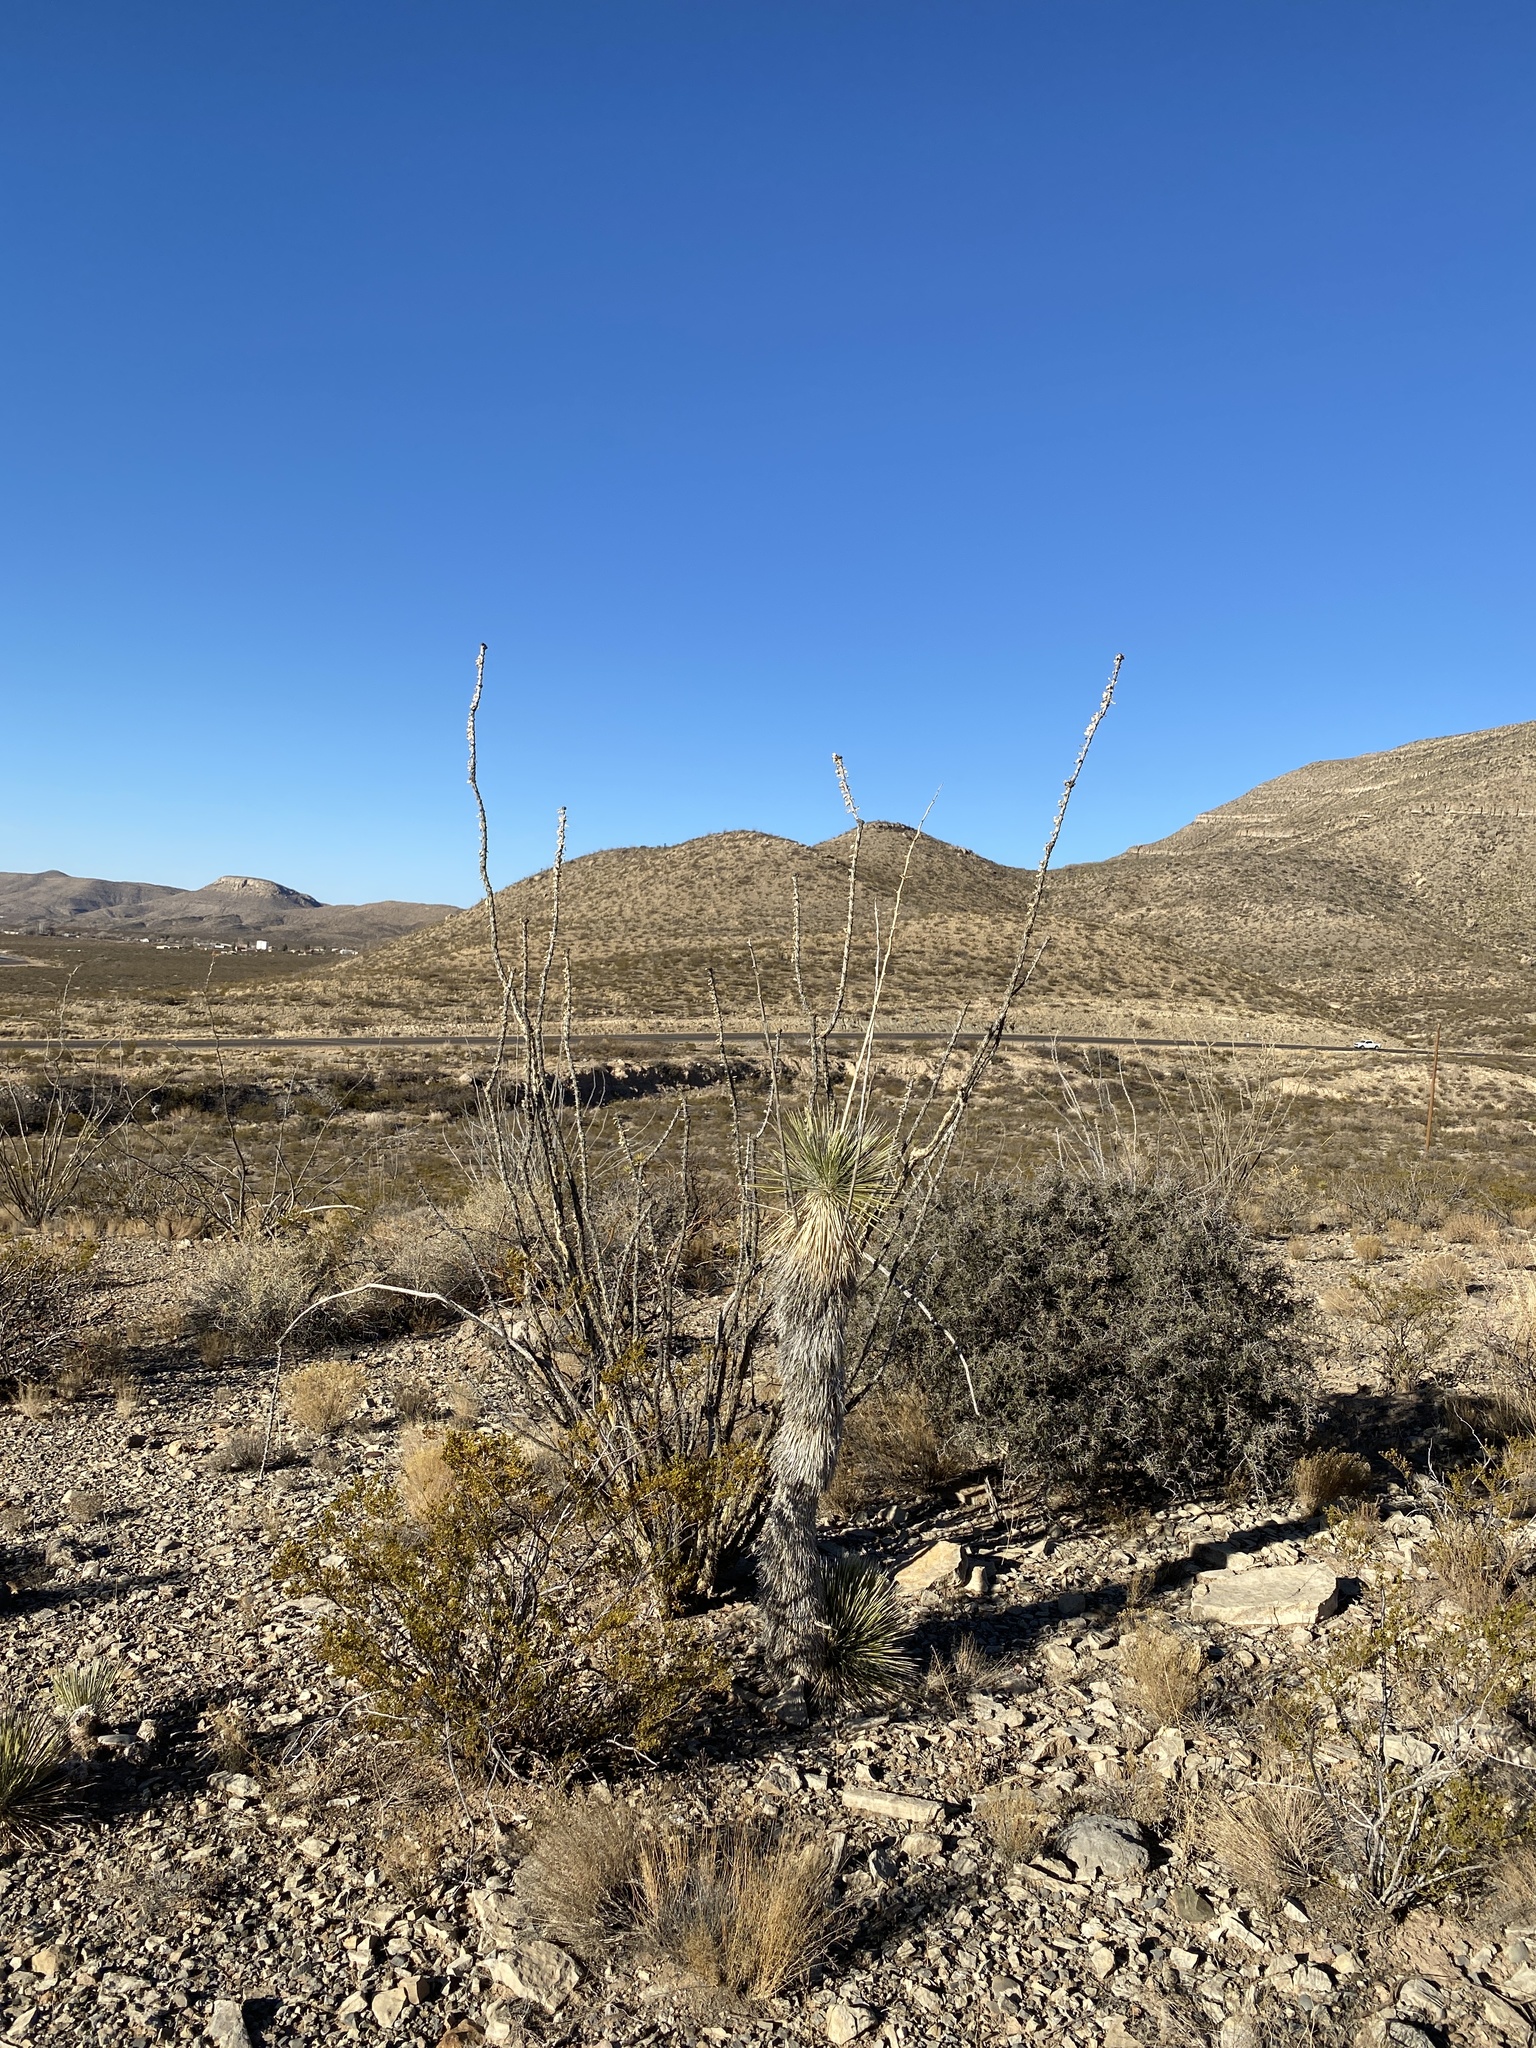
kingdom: Plantae
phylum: Tracheophyta
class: Magnoliopsida
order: Ericales
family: Fouquieriaceae
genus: Fouquieria
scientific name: Fouquieria splendens
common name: Vine-cactus
